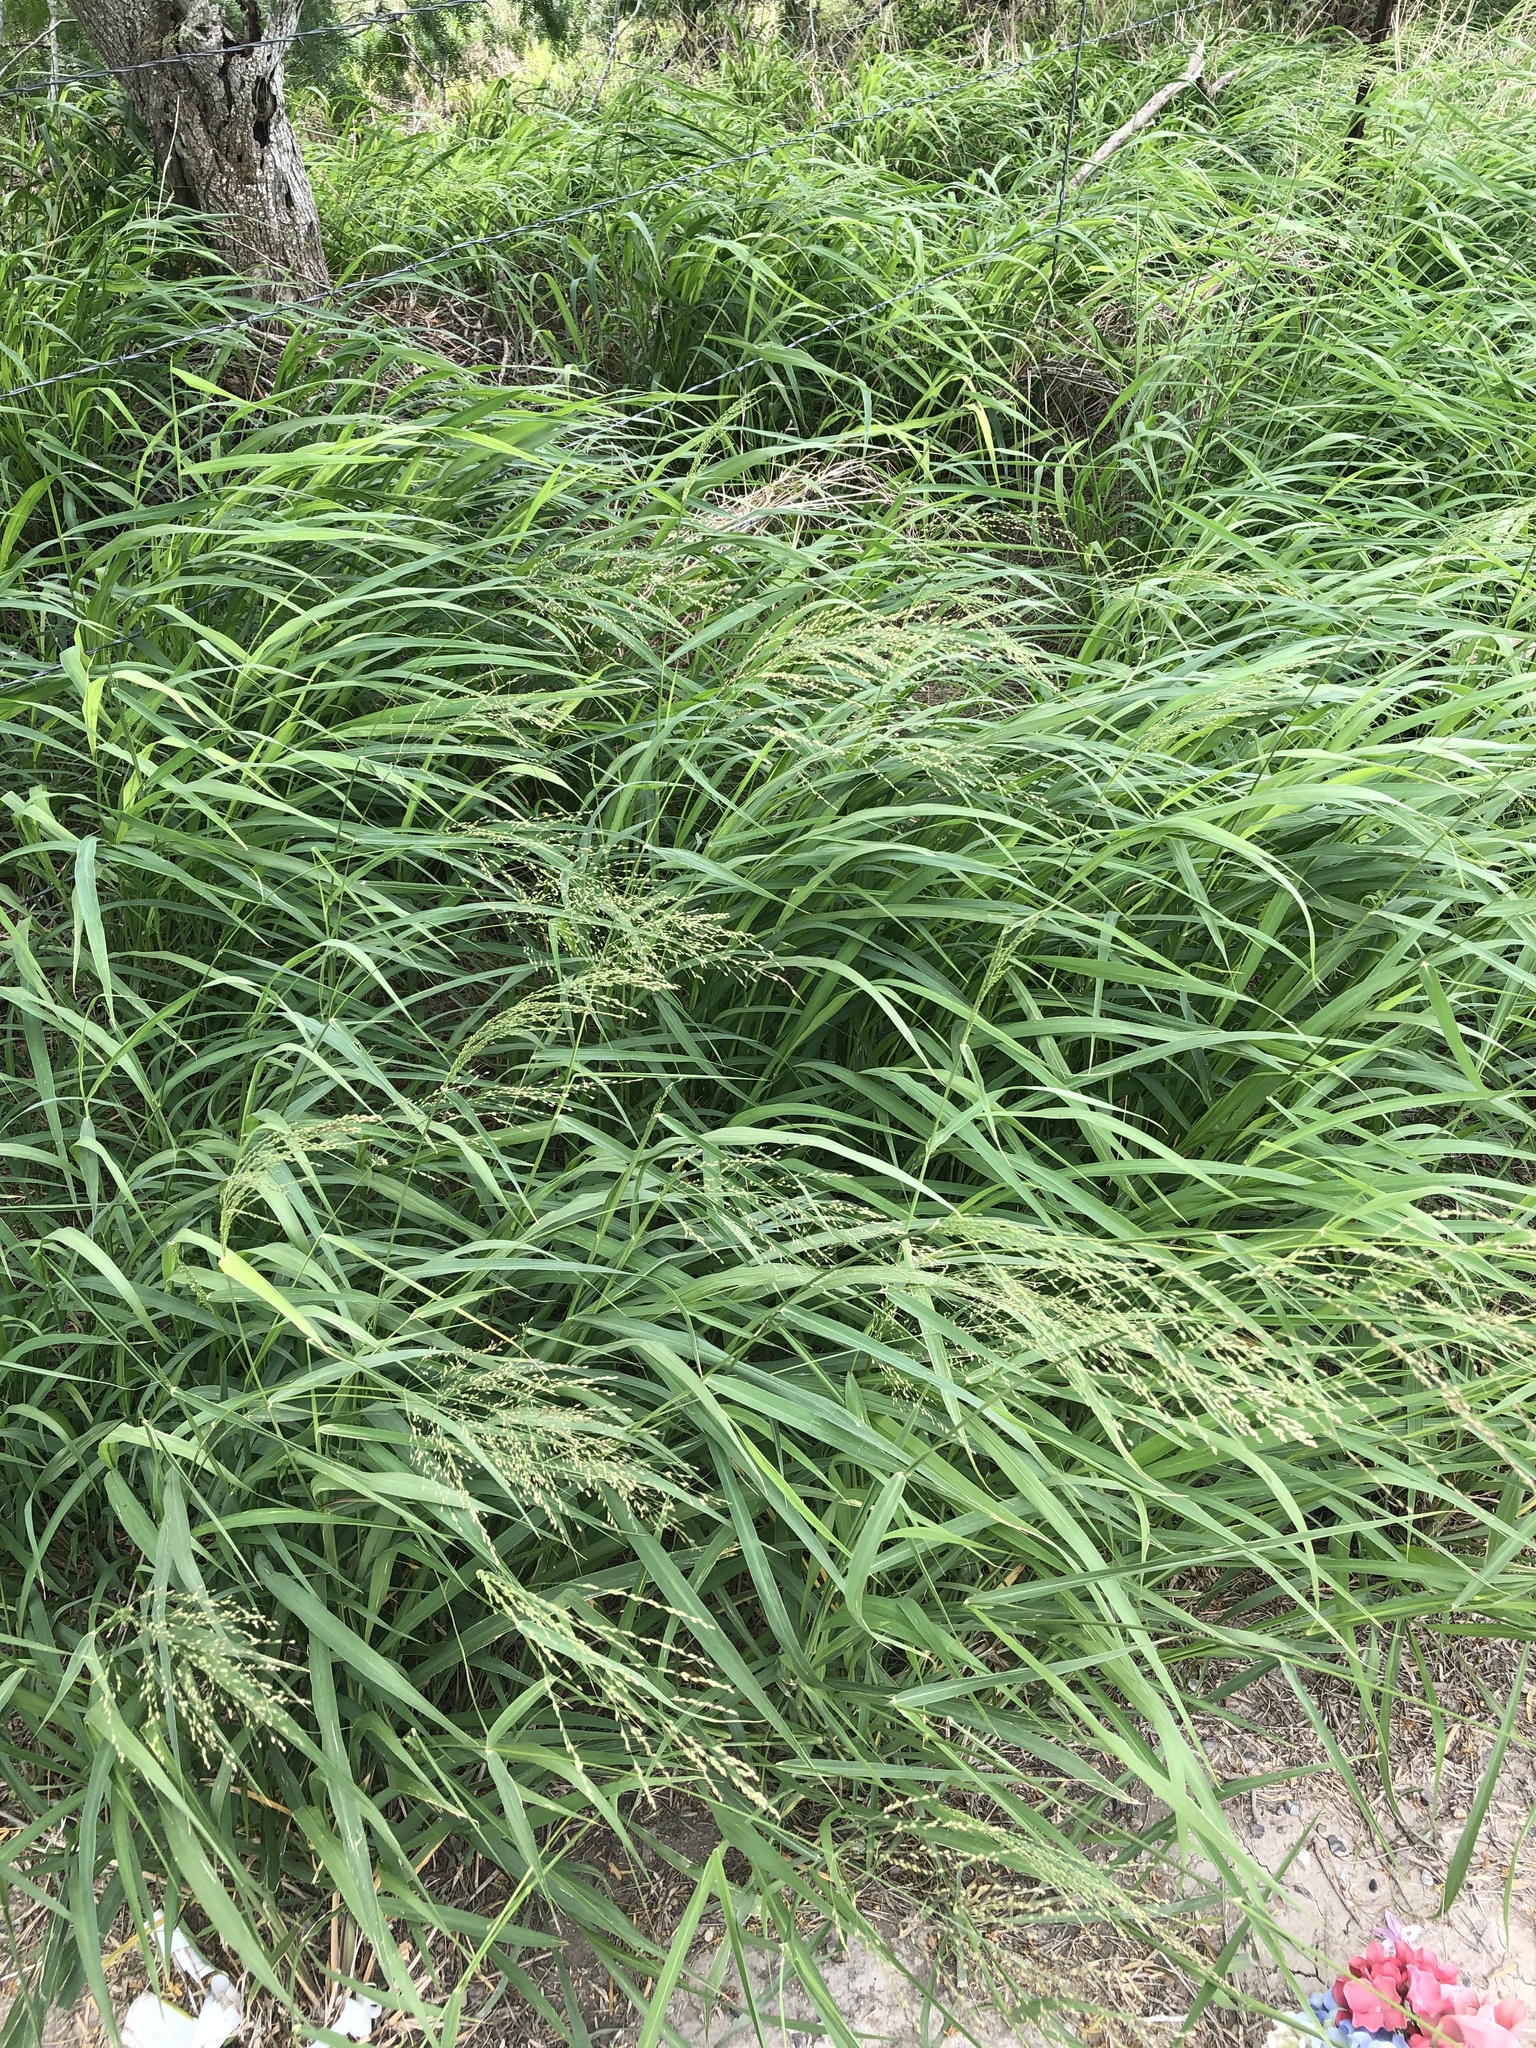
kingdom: Plantae
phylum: Tracheophyta
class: Liliopsida
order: Poales
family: Poaceae
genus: Megathyrsus
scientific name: Megathyrsus maximus
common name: Guineagrass
